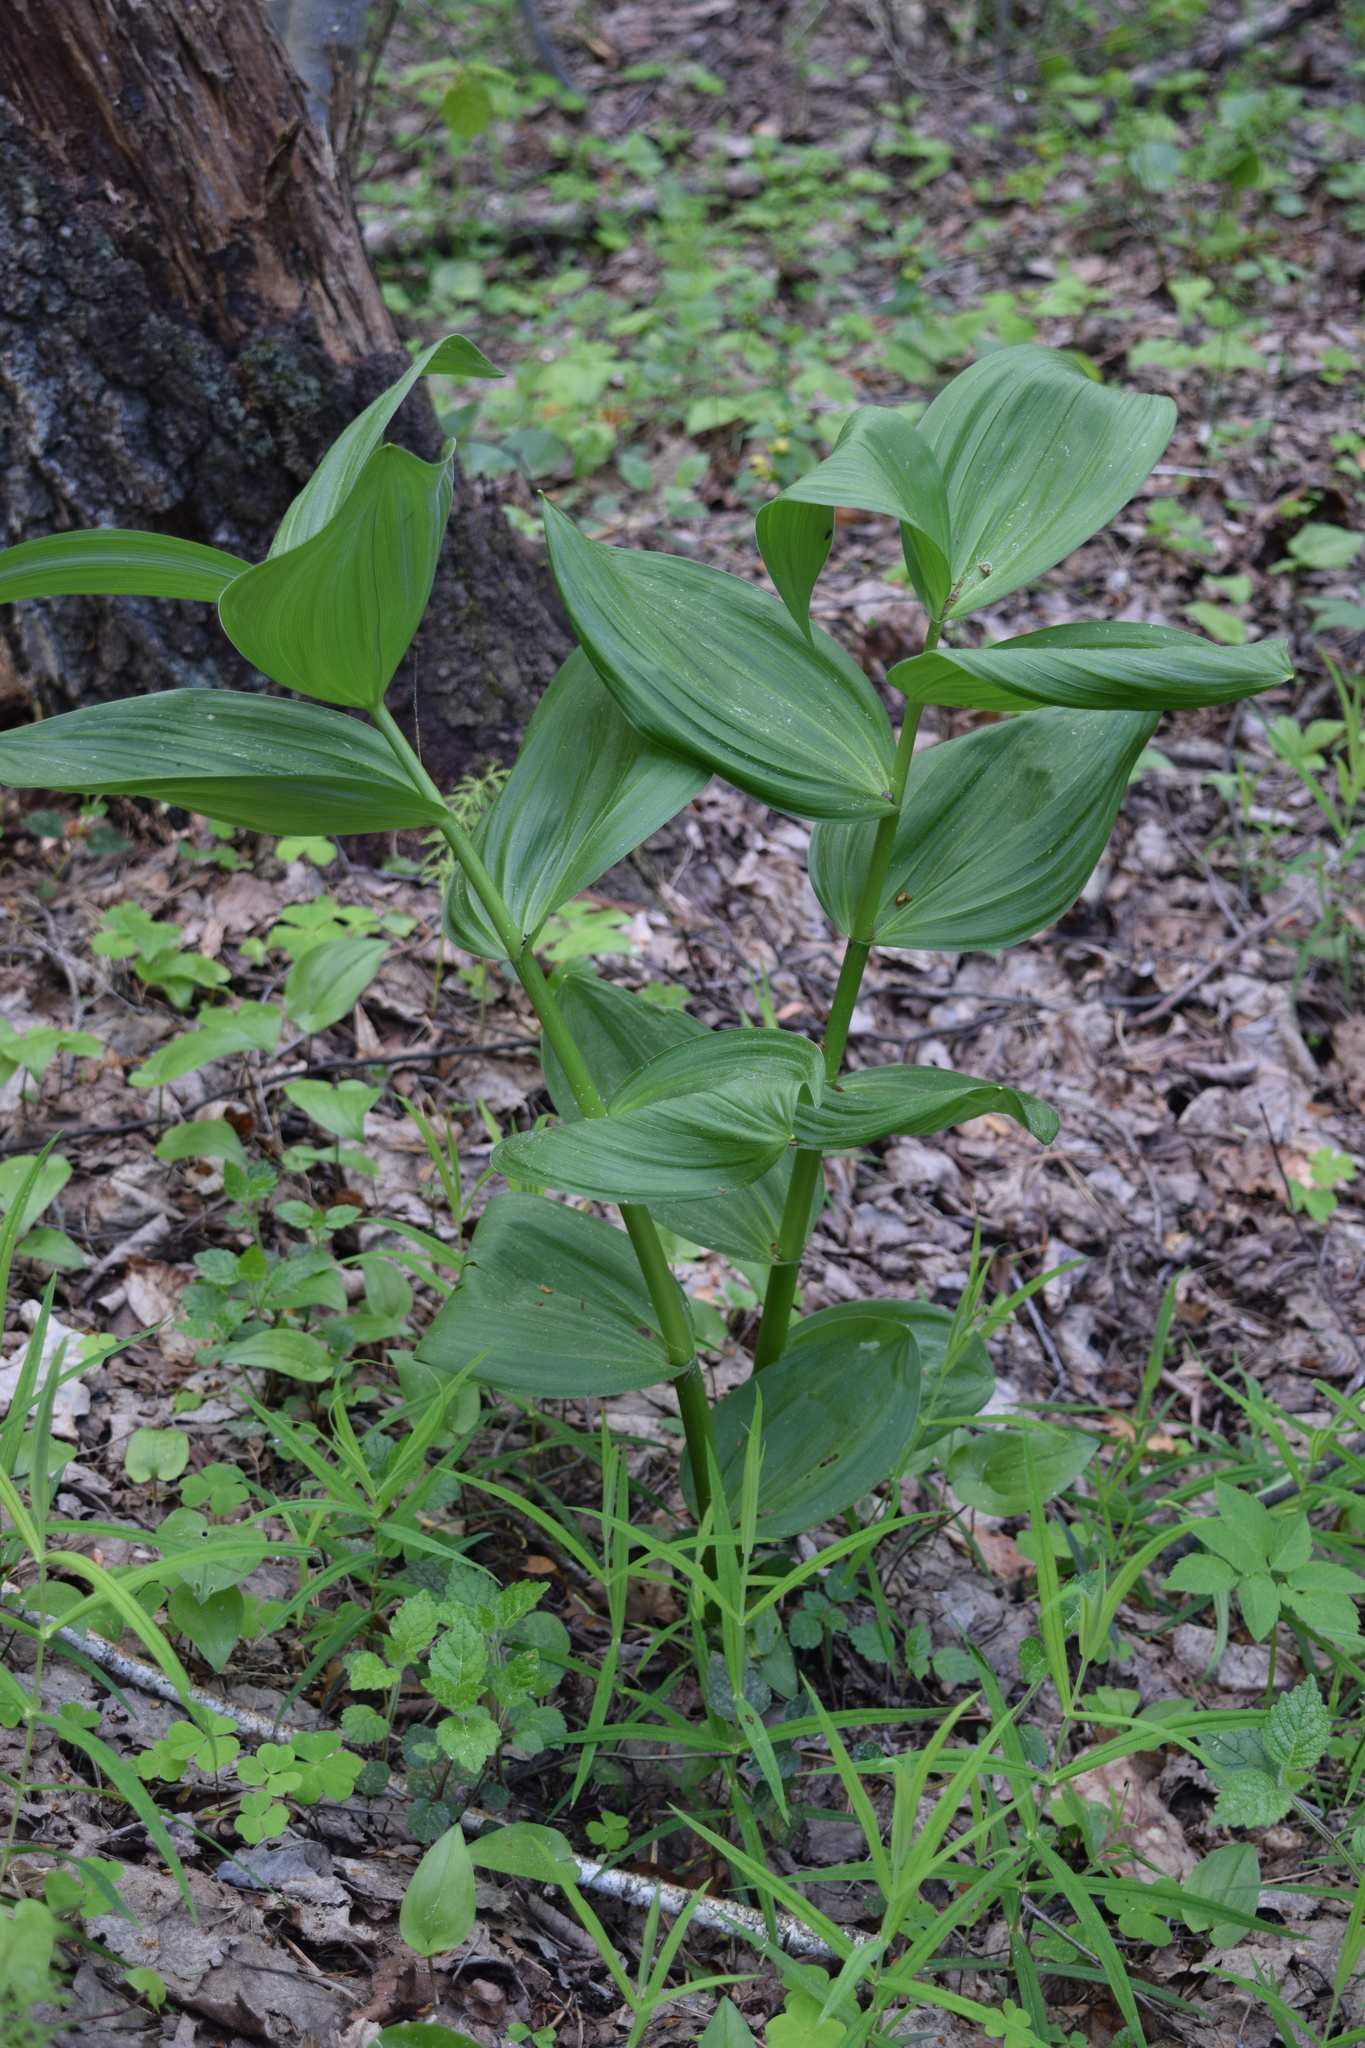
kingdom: Plantae
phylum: Tracheophyta
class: Liliopsida
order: Liliales
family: Melanthiaceae
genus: Veratrum
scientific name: Veratrum lobelianum
